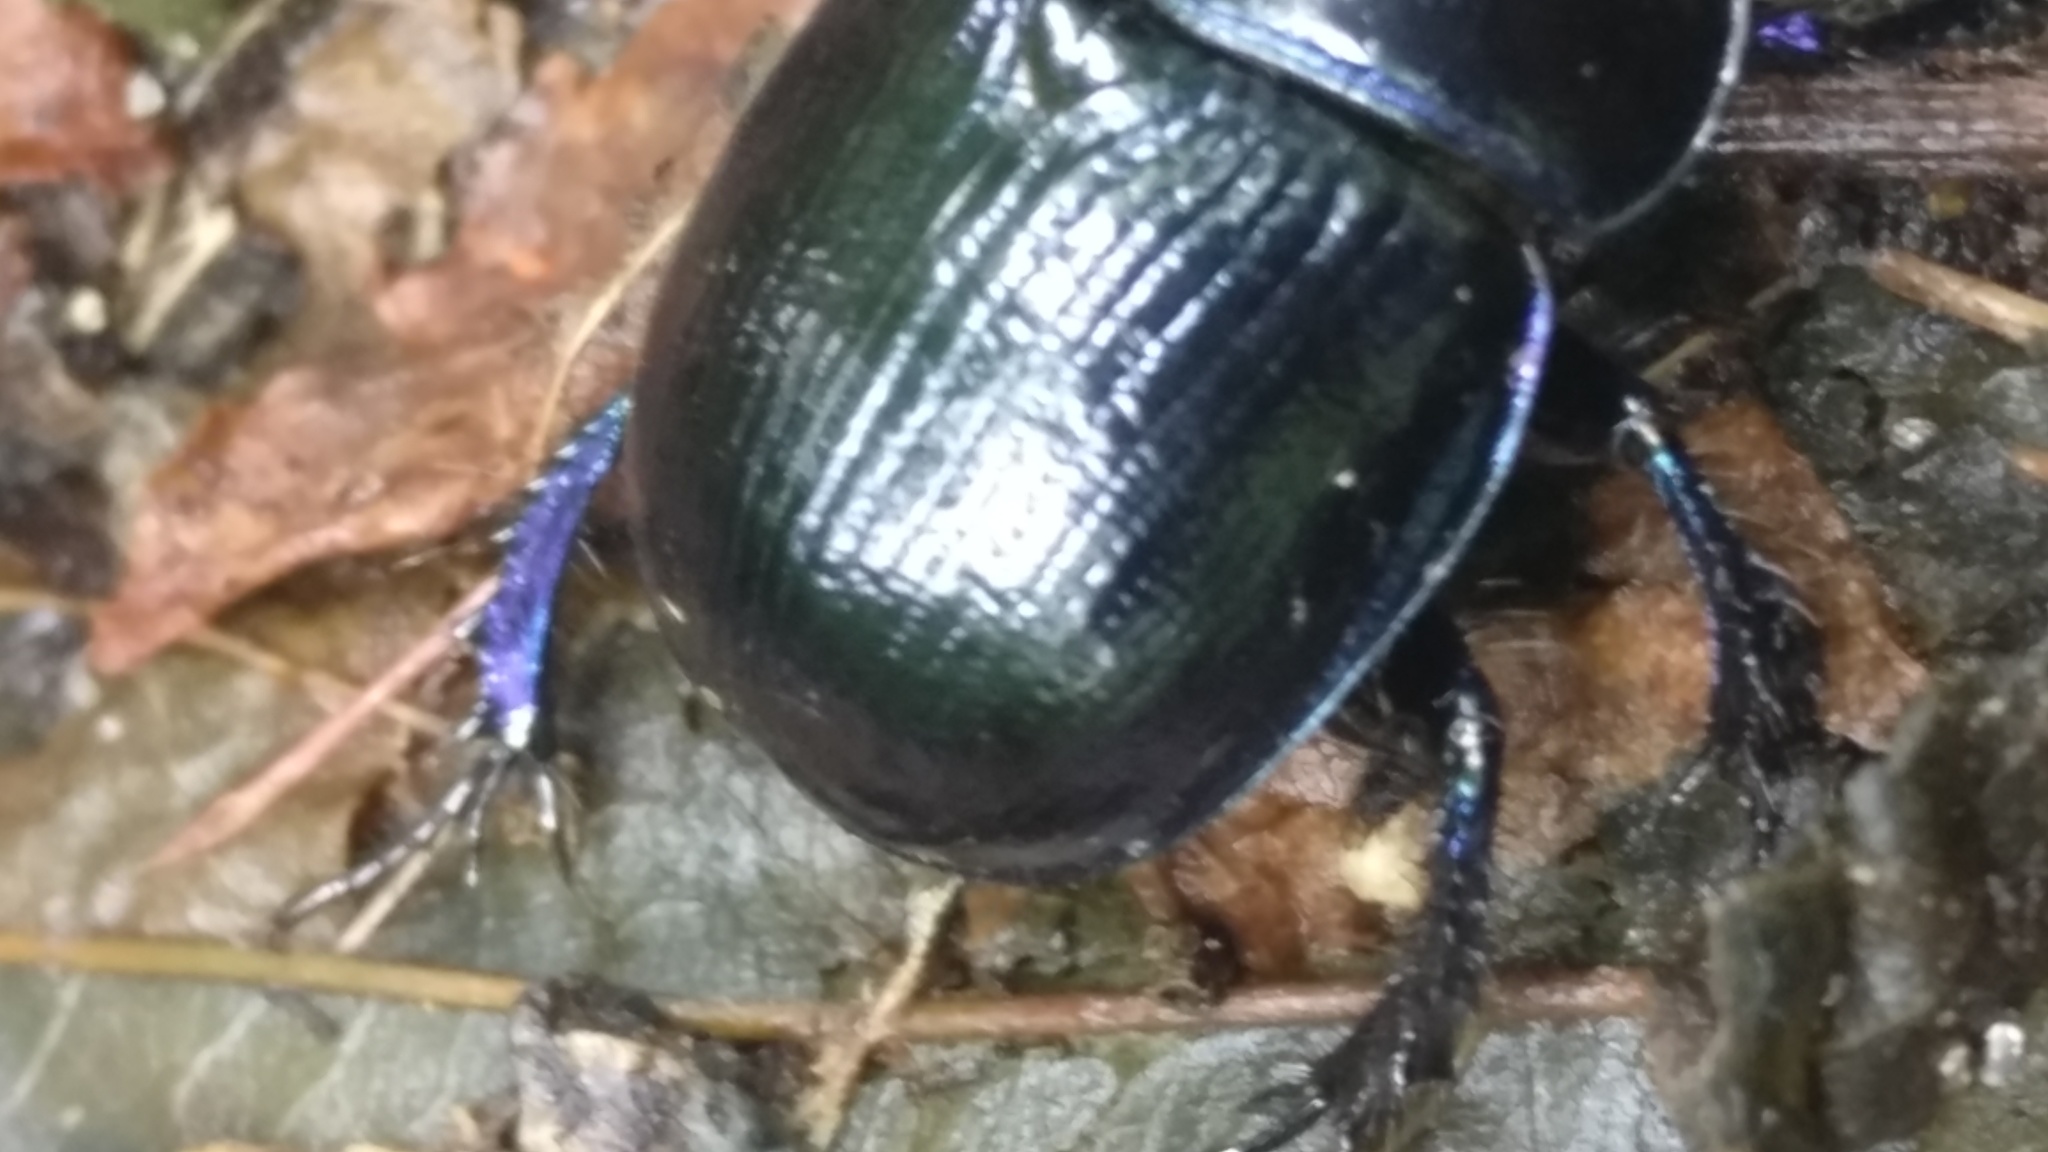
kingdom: Animalia
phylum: Arthropoda
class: Insecta
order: Coleoptera
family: Geotrupidae
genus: Anoplotrupes
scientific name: Anoplotrupes stercorosus
